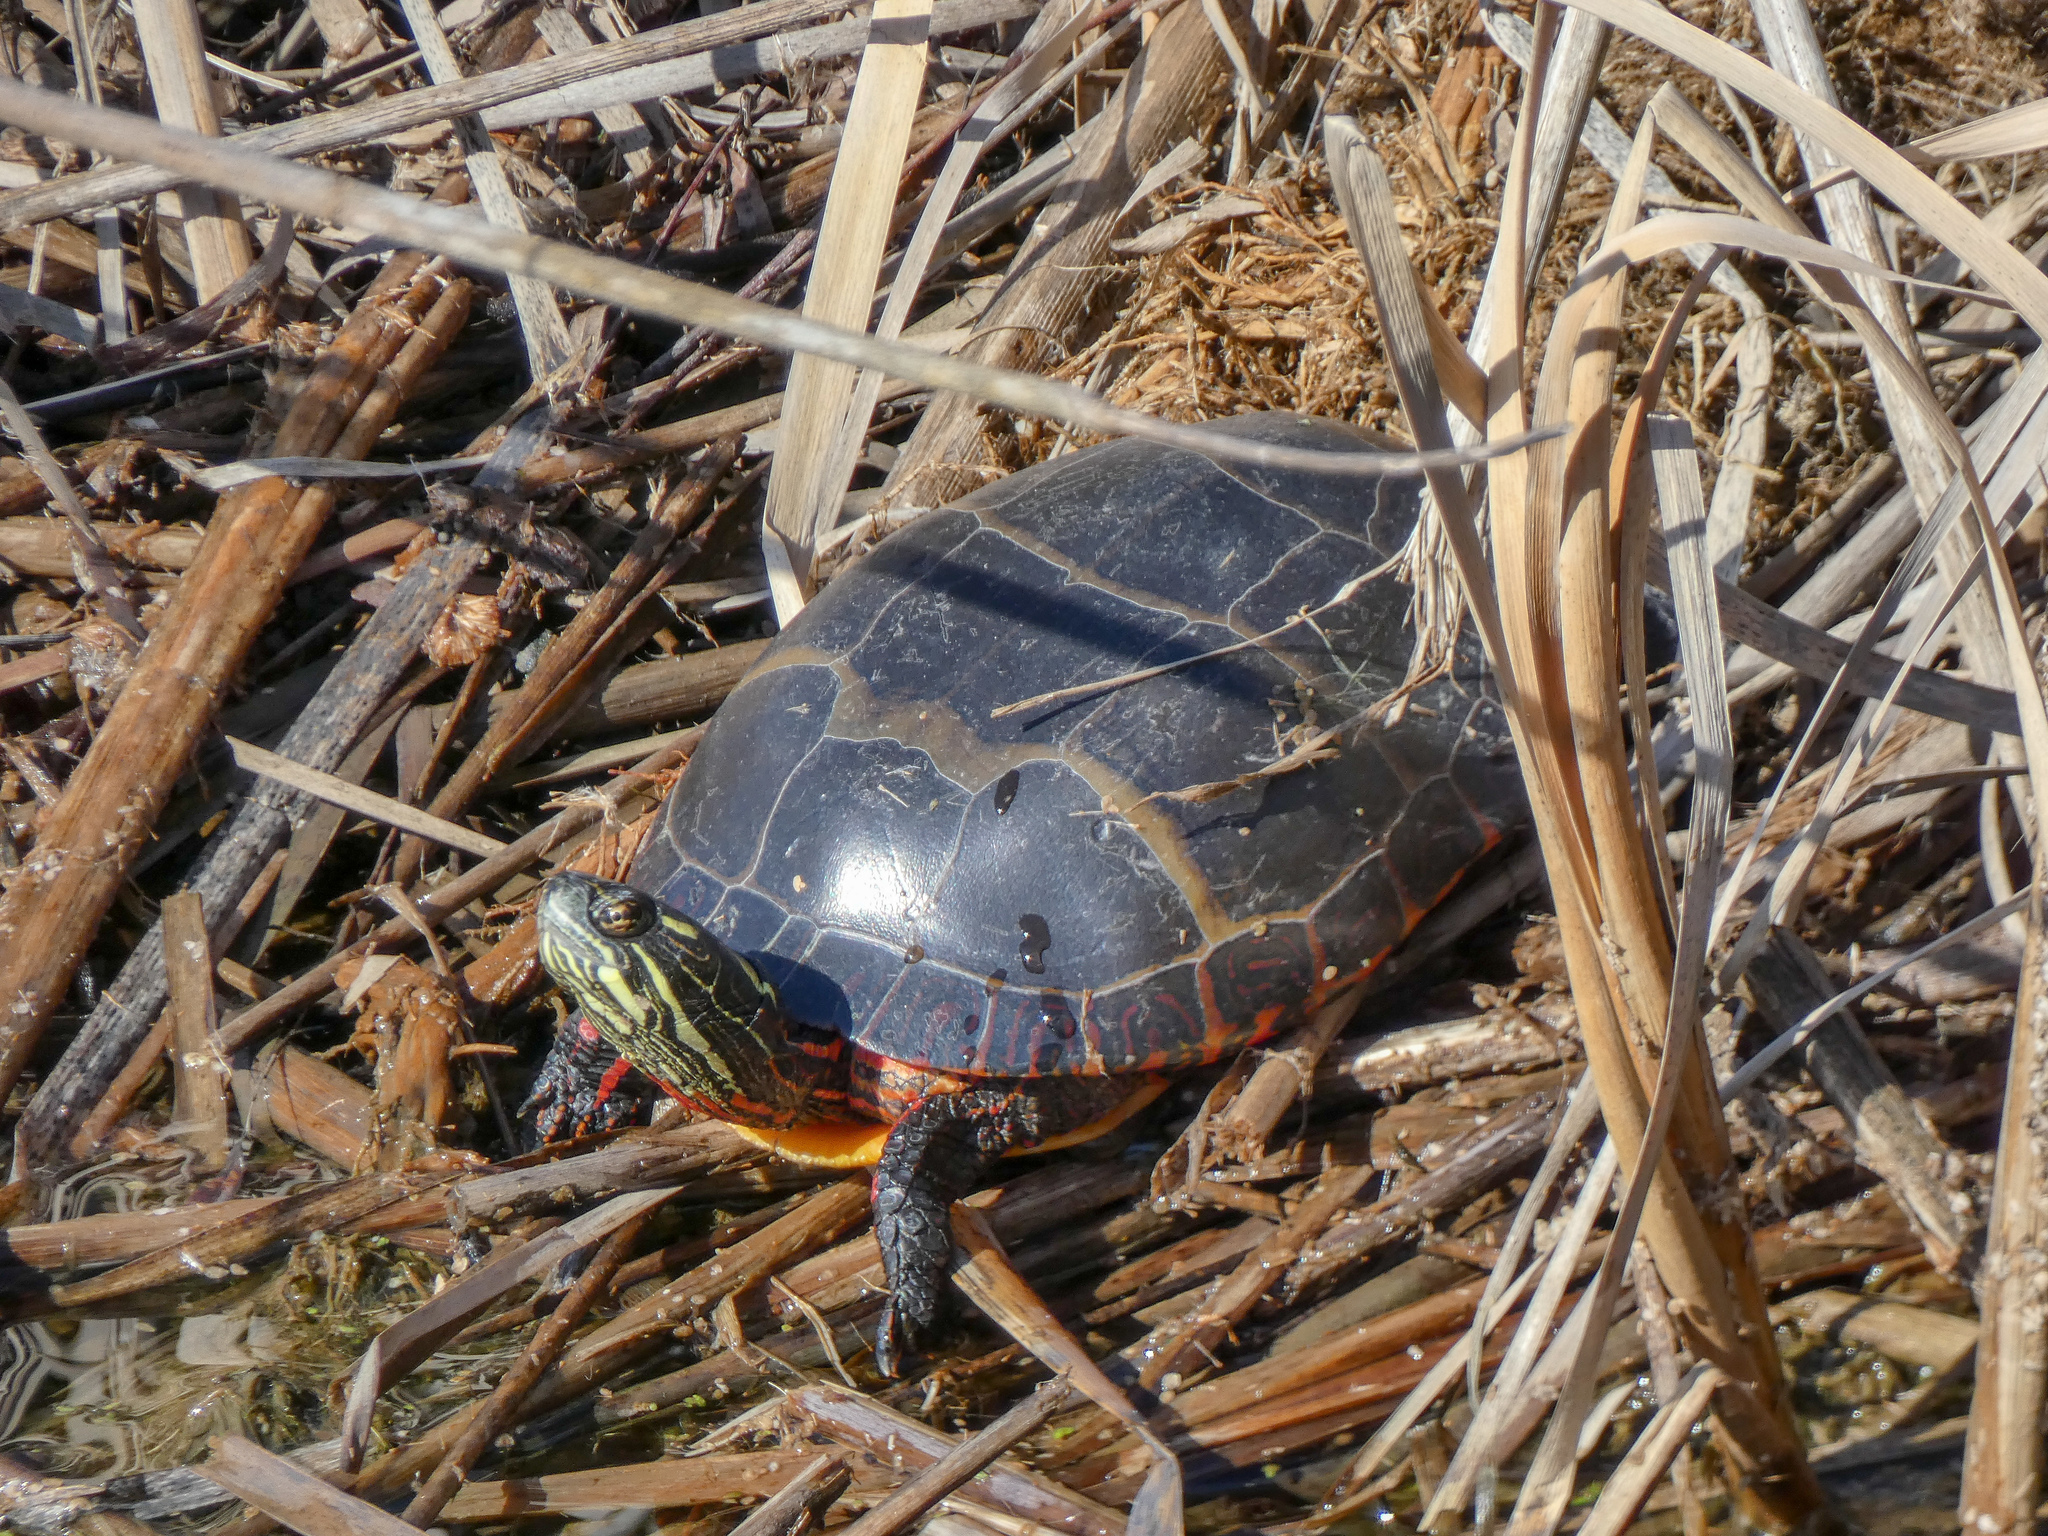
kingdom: Animalia
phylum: Chordata
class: Testudines
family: Emydidae
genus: Chrysemys
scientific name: Chrysemys picta
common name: Painted turtle
